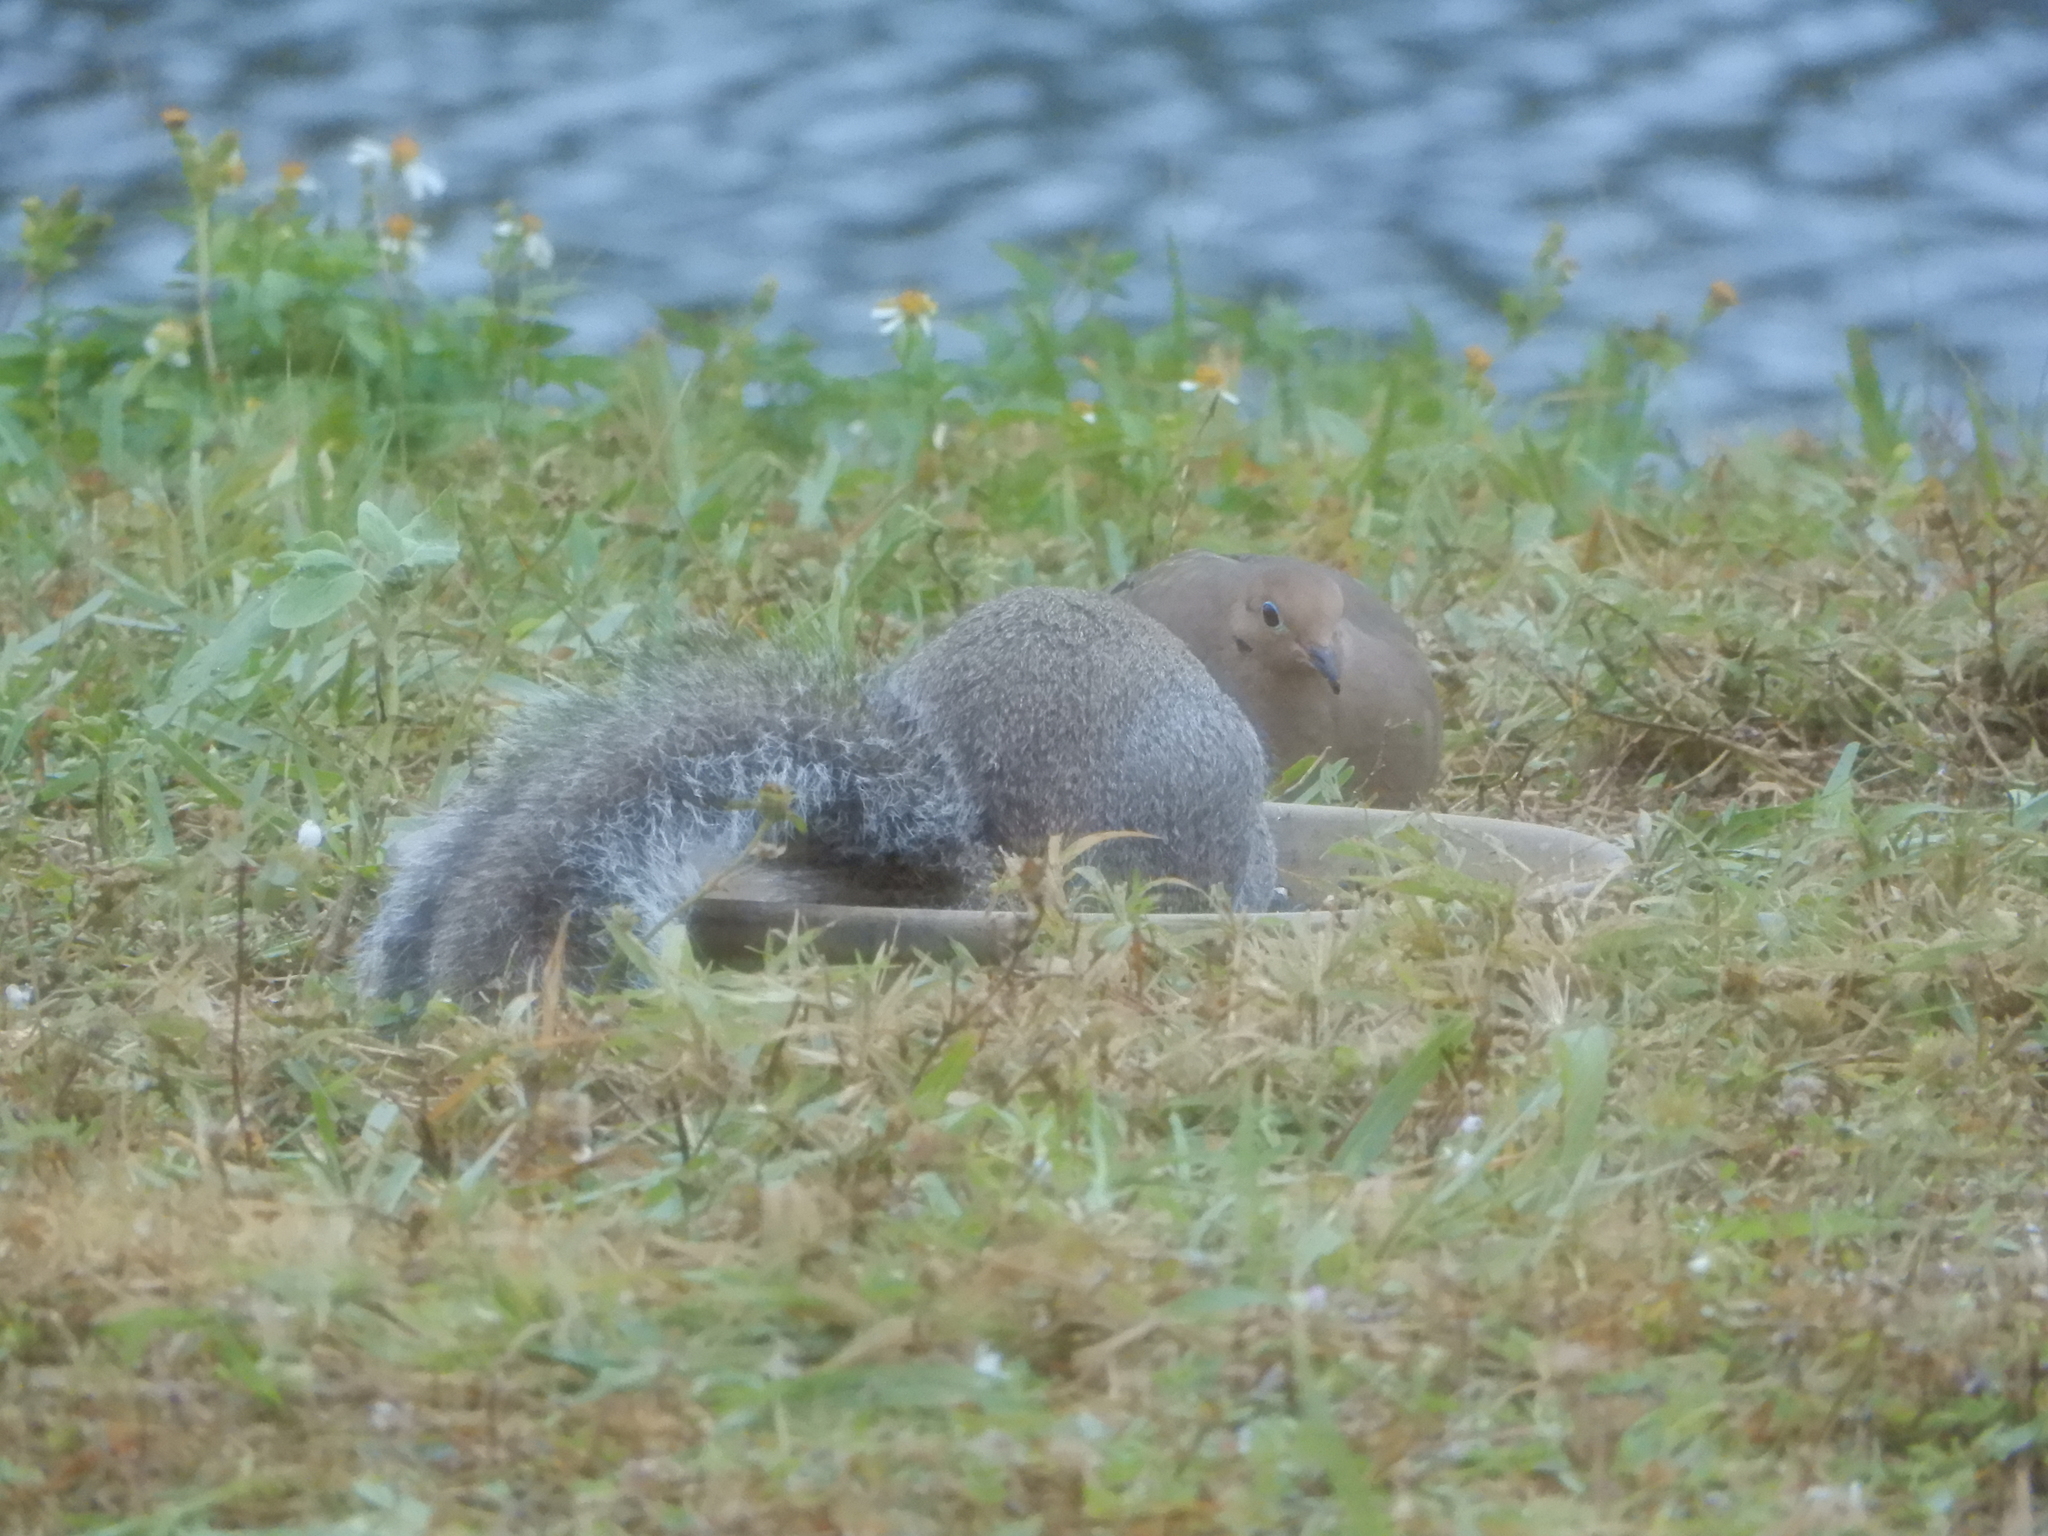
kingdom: Animalia
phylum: Chordata
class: Aves
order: Columbiformes
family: Columbidae
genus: Zenaida
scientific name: Zenaida macroura
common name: Mourning dove
